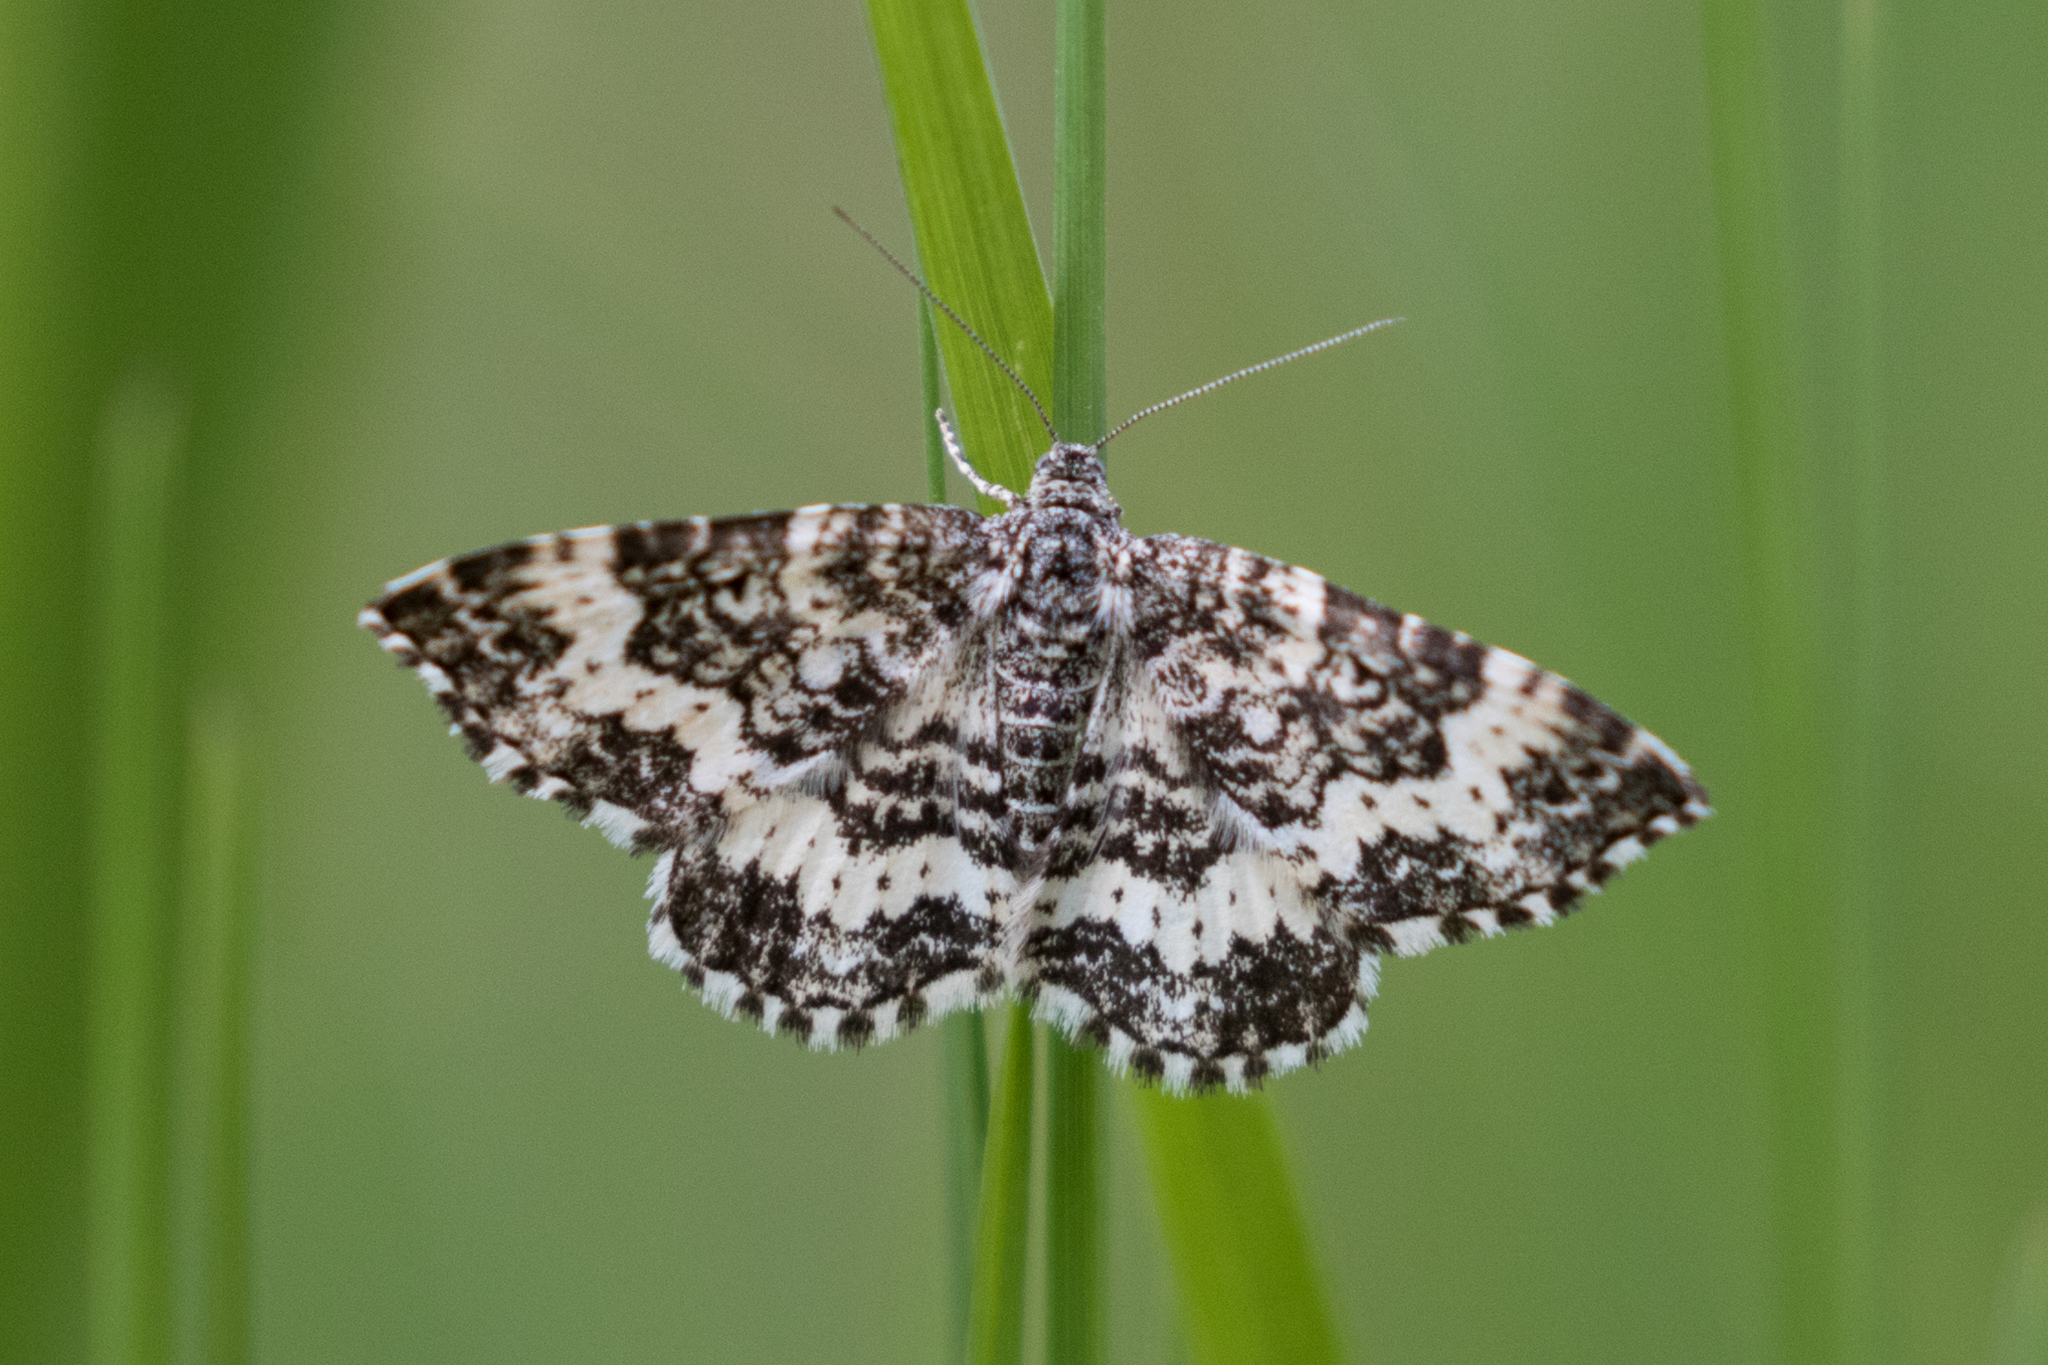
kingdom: Animalia
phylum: Arthropoda
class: Insecta
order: Lepidoptera
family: Geometridae
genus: Epirrhoe
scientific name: Epirrhoe sperryi
